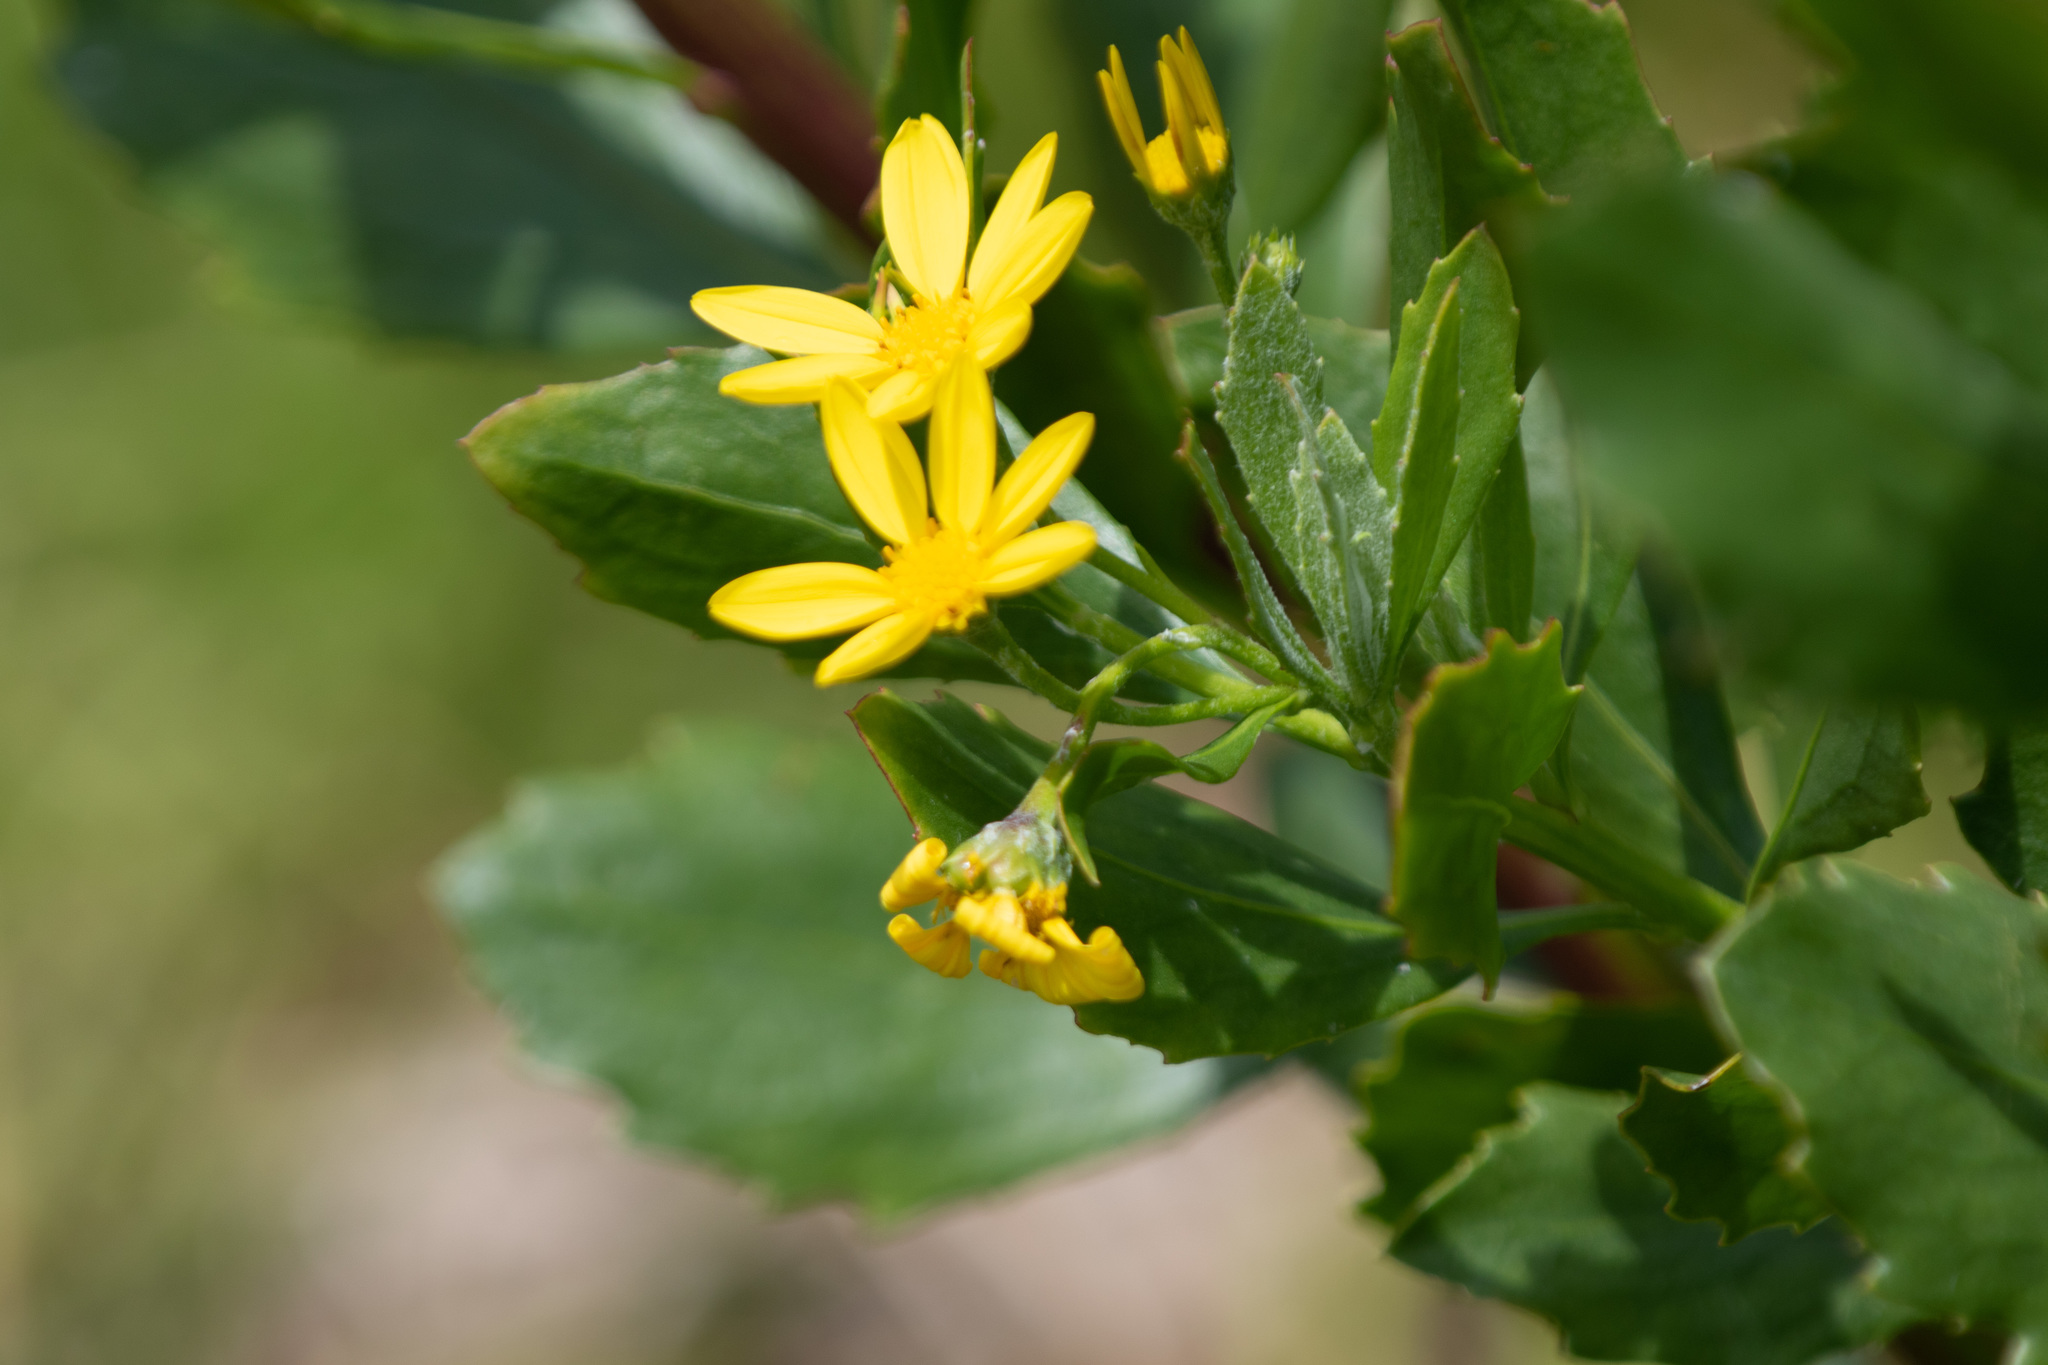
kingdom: Plantae
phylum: Tracheophyta
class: Magnoliopsida
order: Asterales
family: Asteraceae
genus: Osteospermum
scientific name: Osteospermum moniliferum
